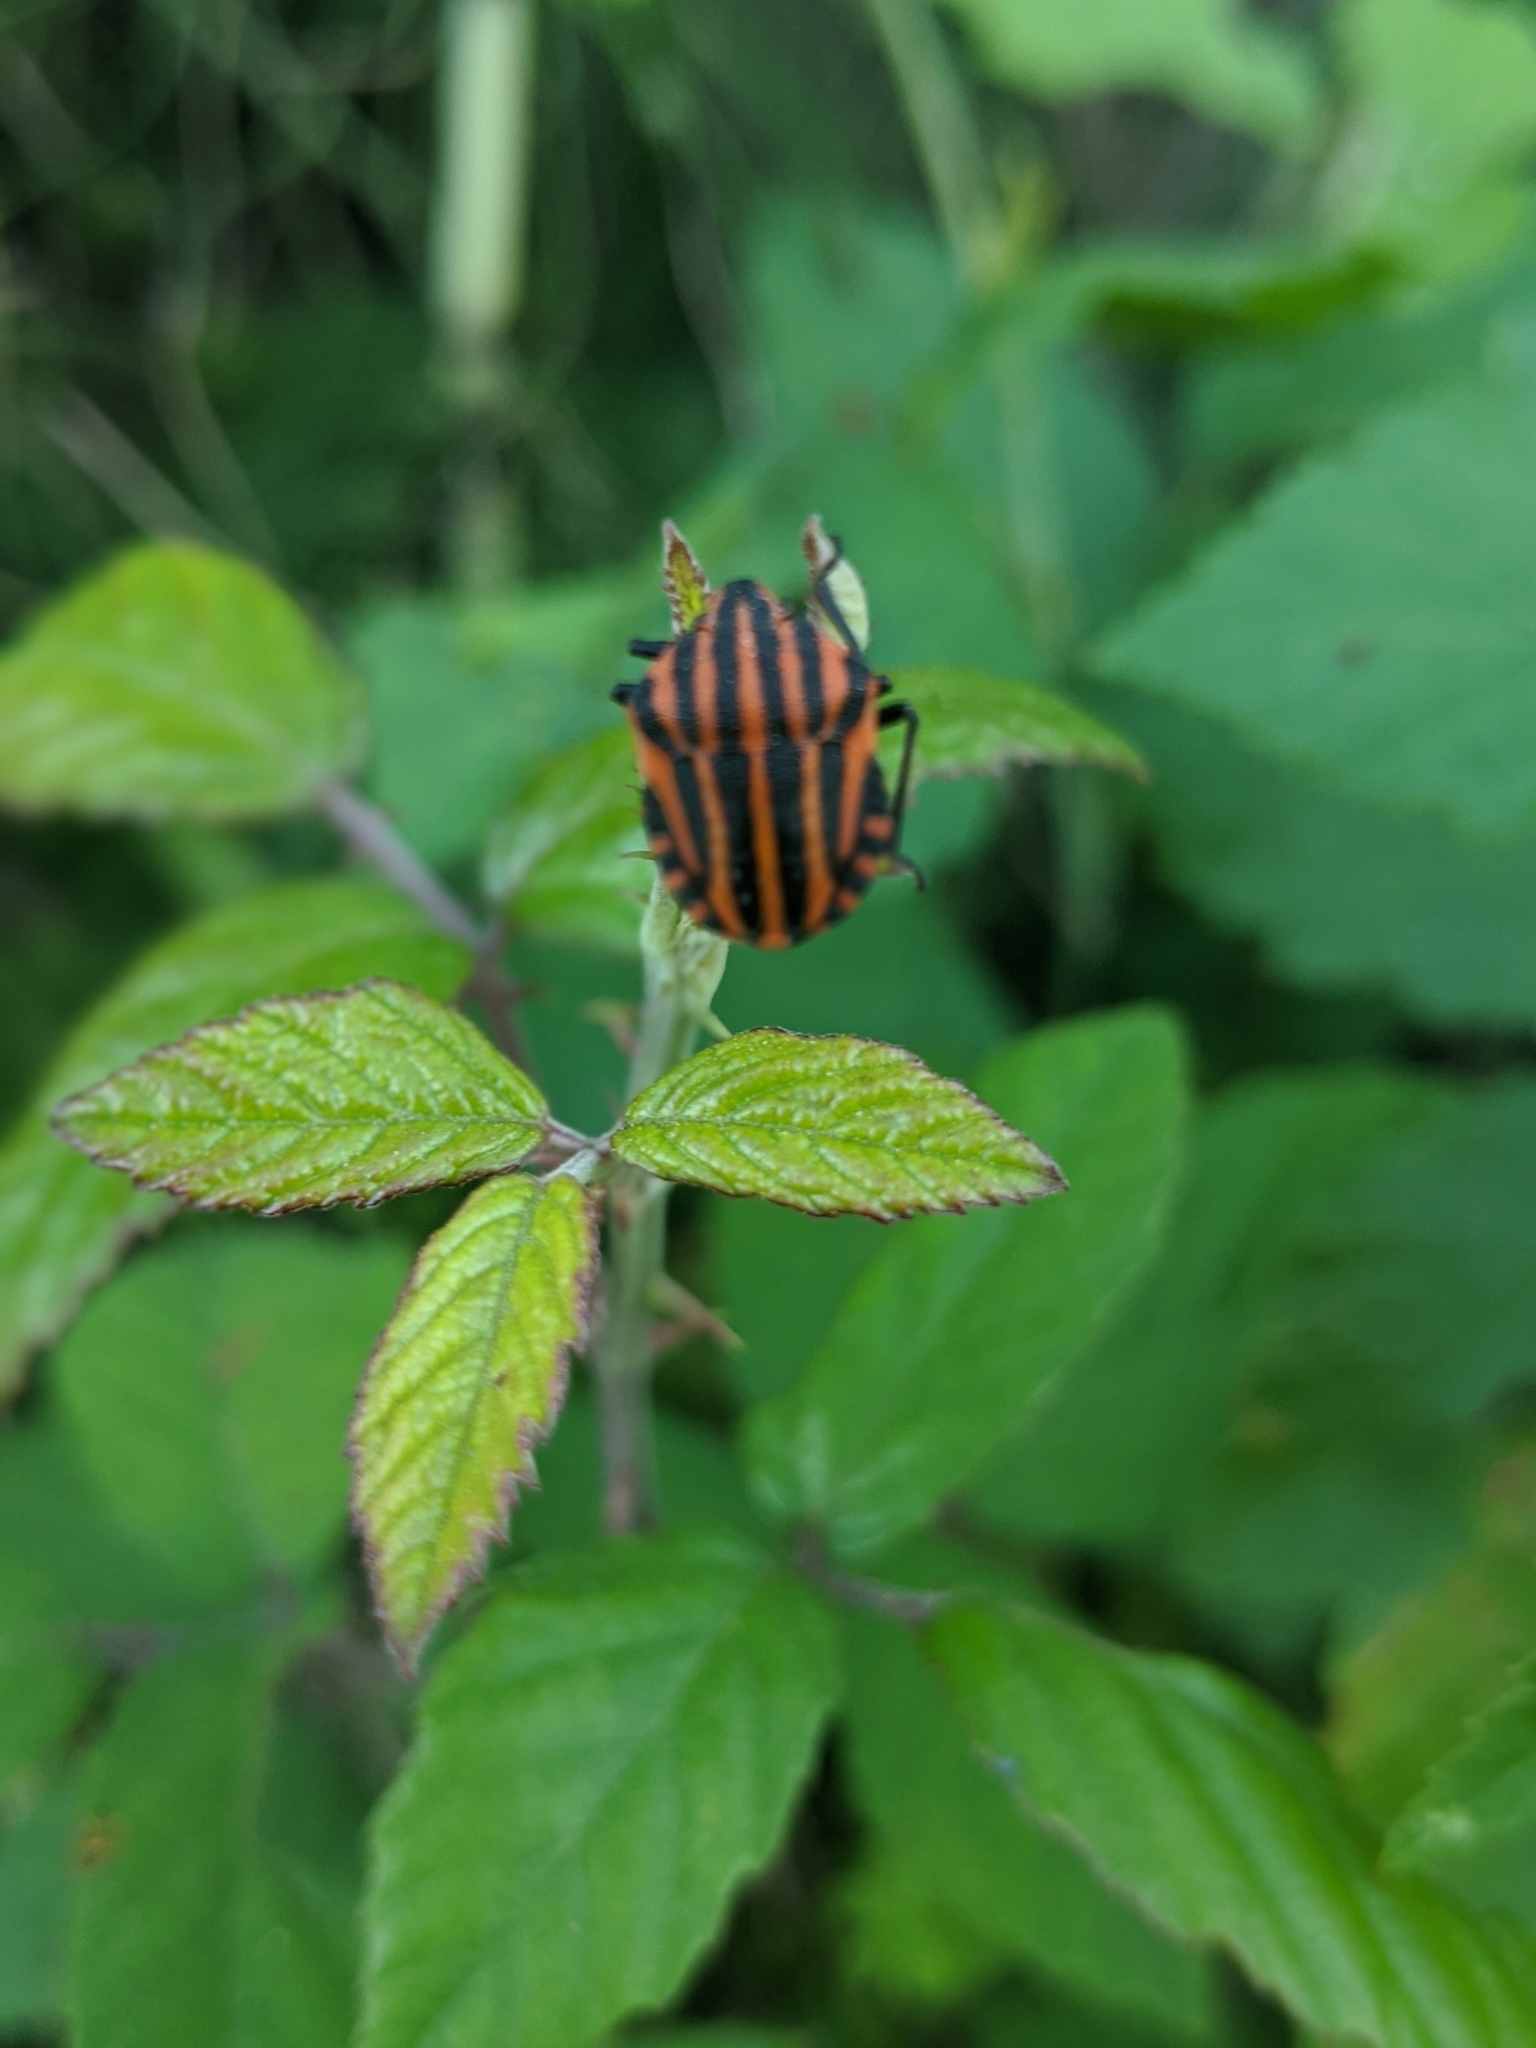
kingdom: Animalia
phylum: Arthropoda
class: Insecta
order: Hemiptera
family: Pentatomidae
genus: Graphosoma
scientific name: Graphosoma italicum
